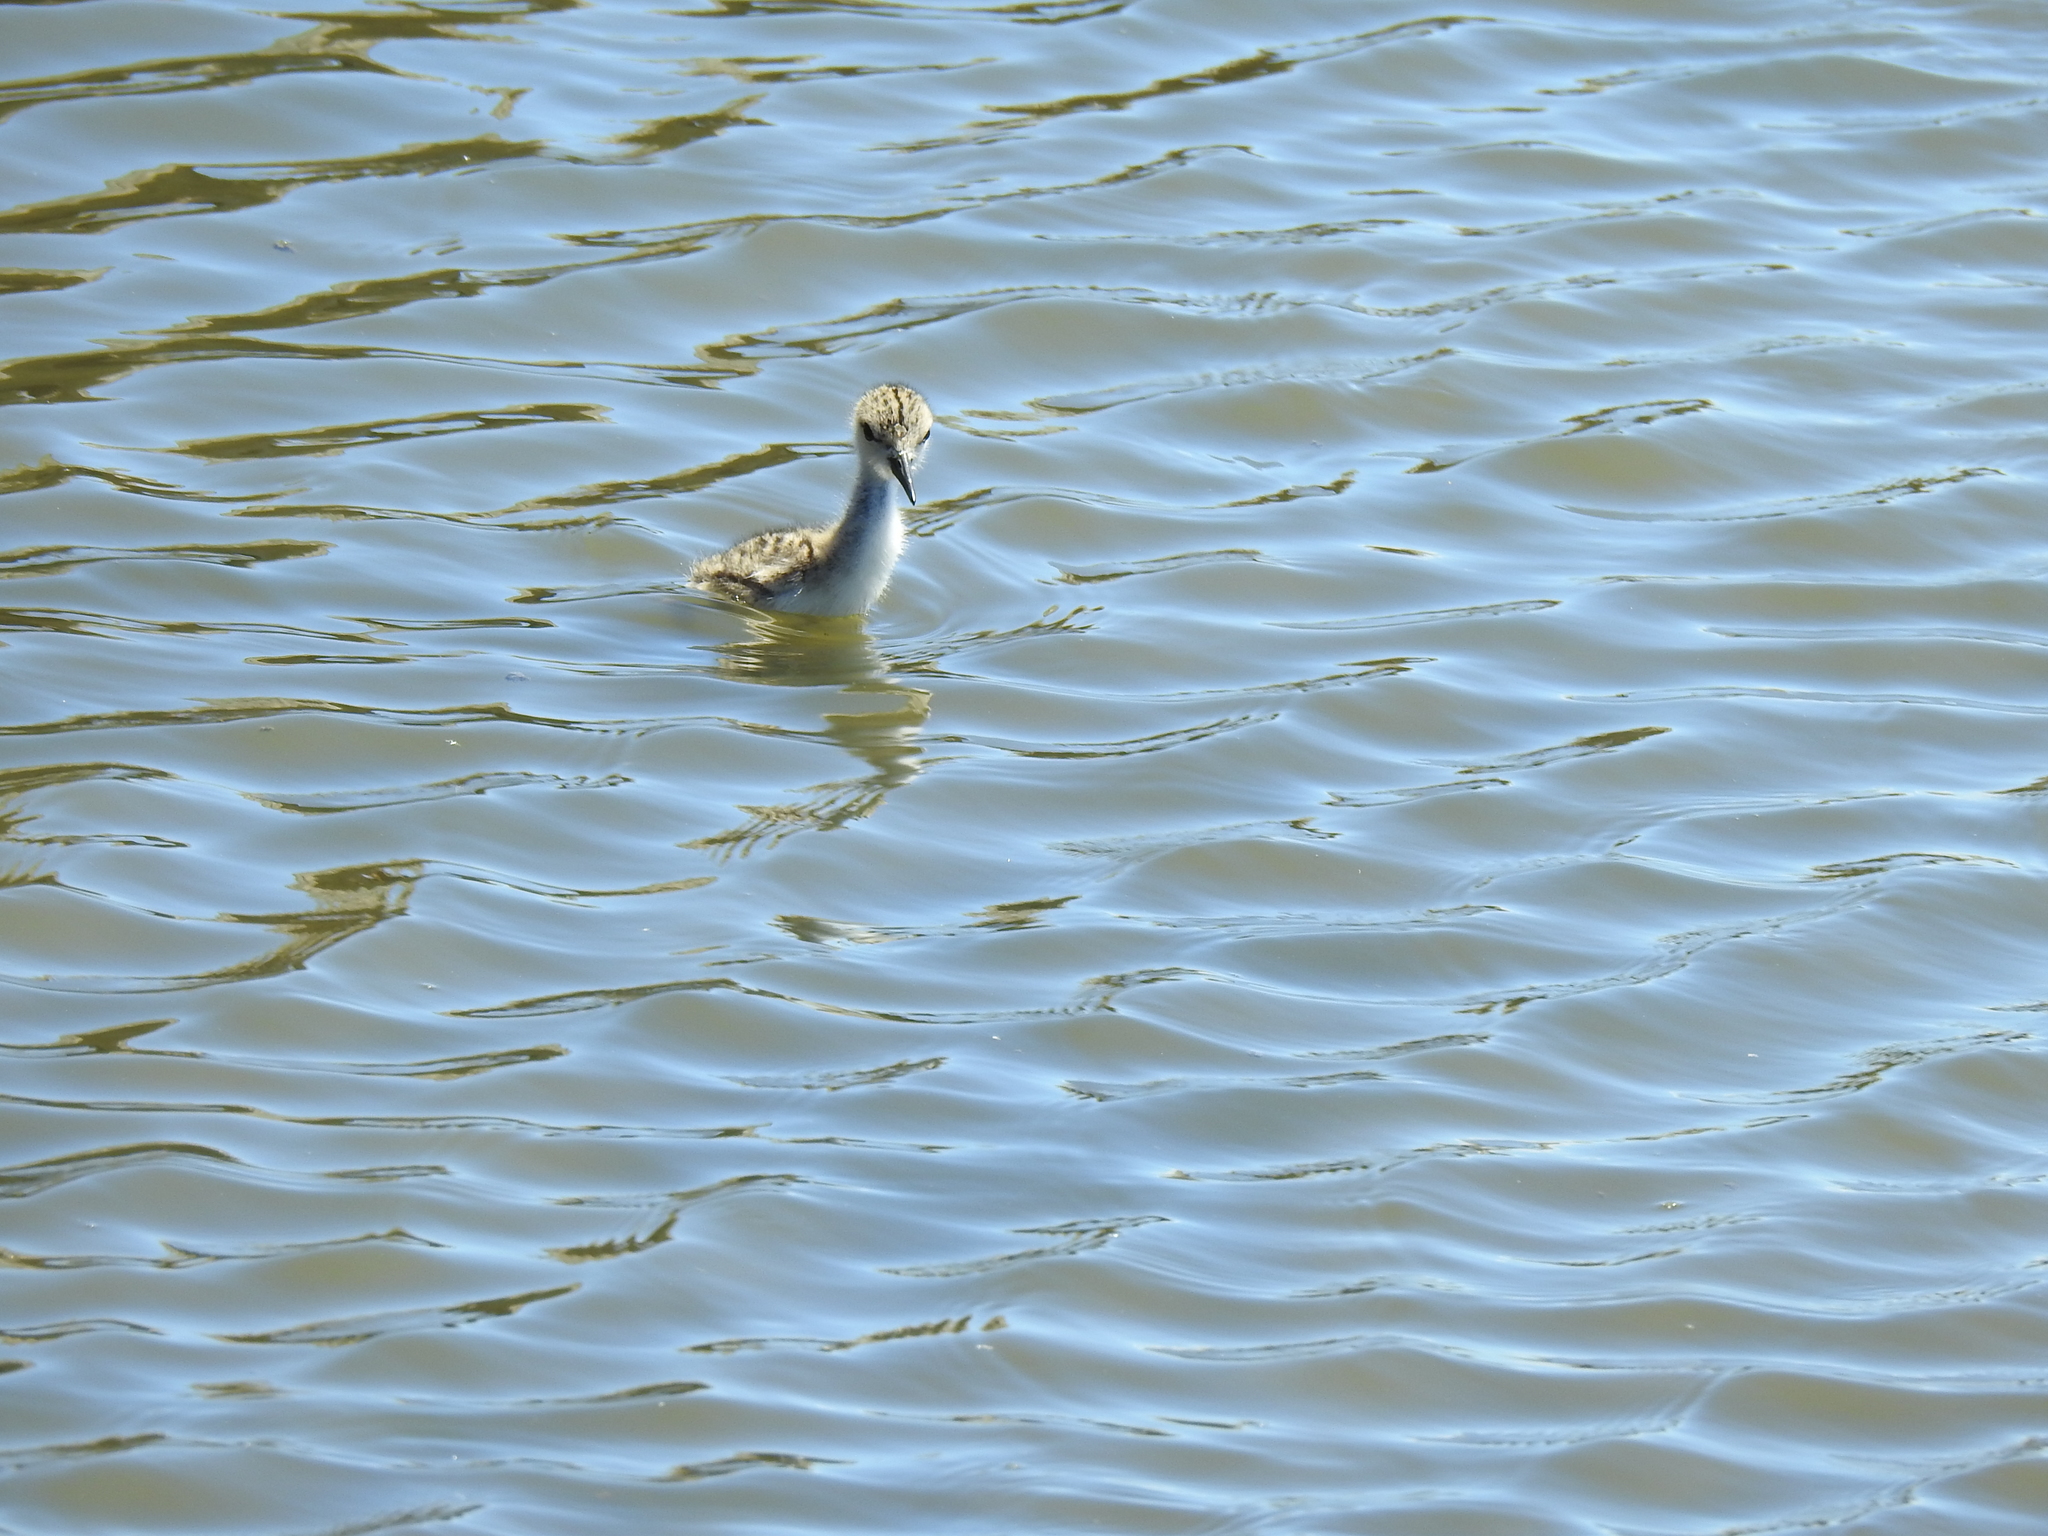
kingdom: Animalia
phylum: Chordata
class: Aves
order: Charadriiformes
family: Recurvirostridae
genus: Himantopus
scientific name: Himantopus mexicanus
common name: Black-necked stilt
